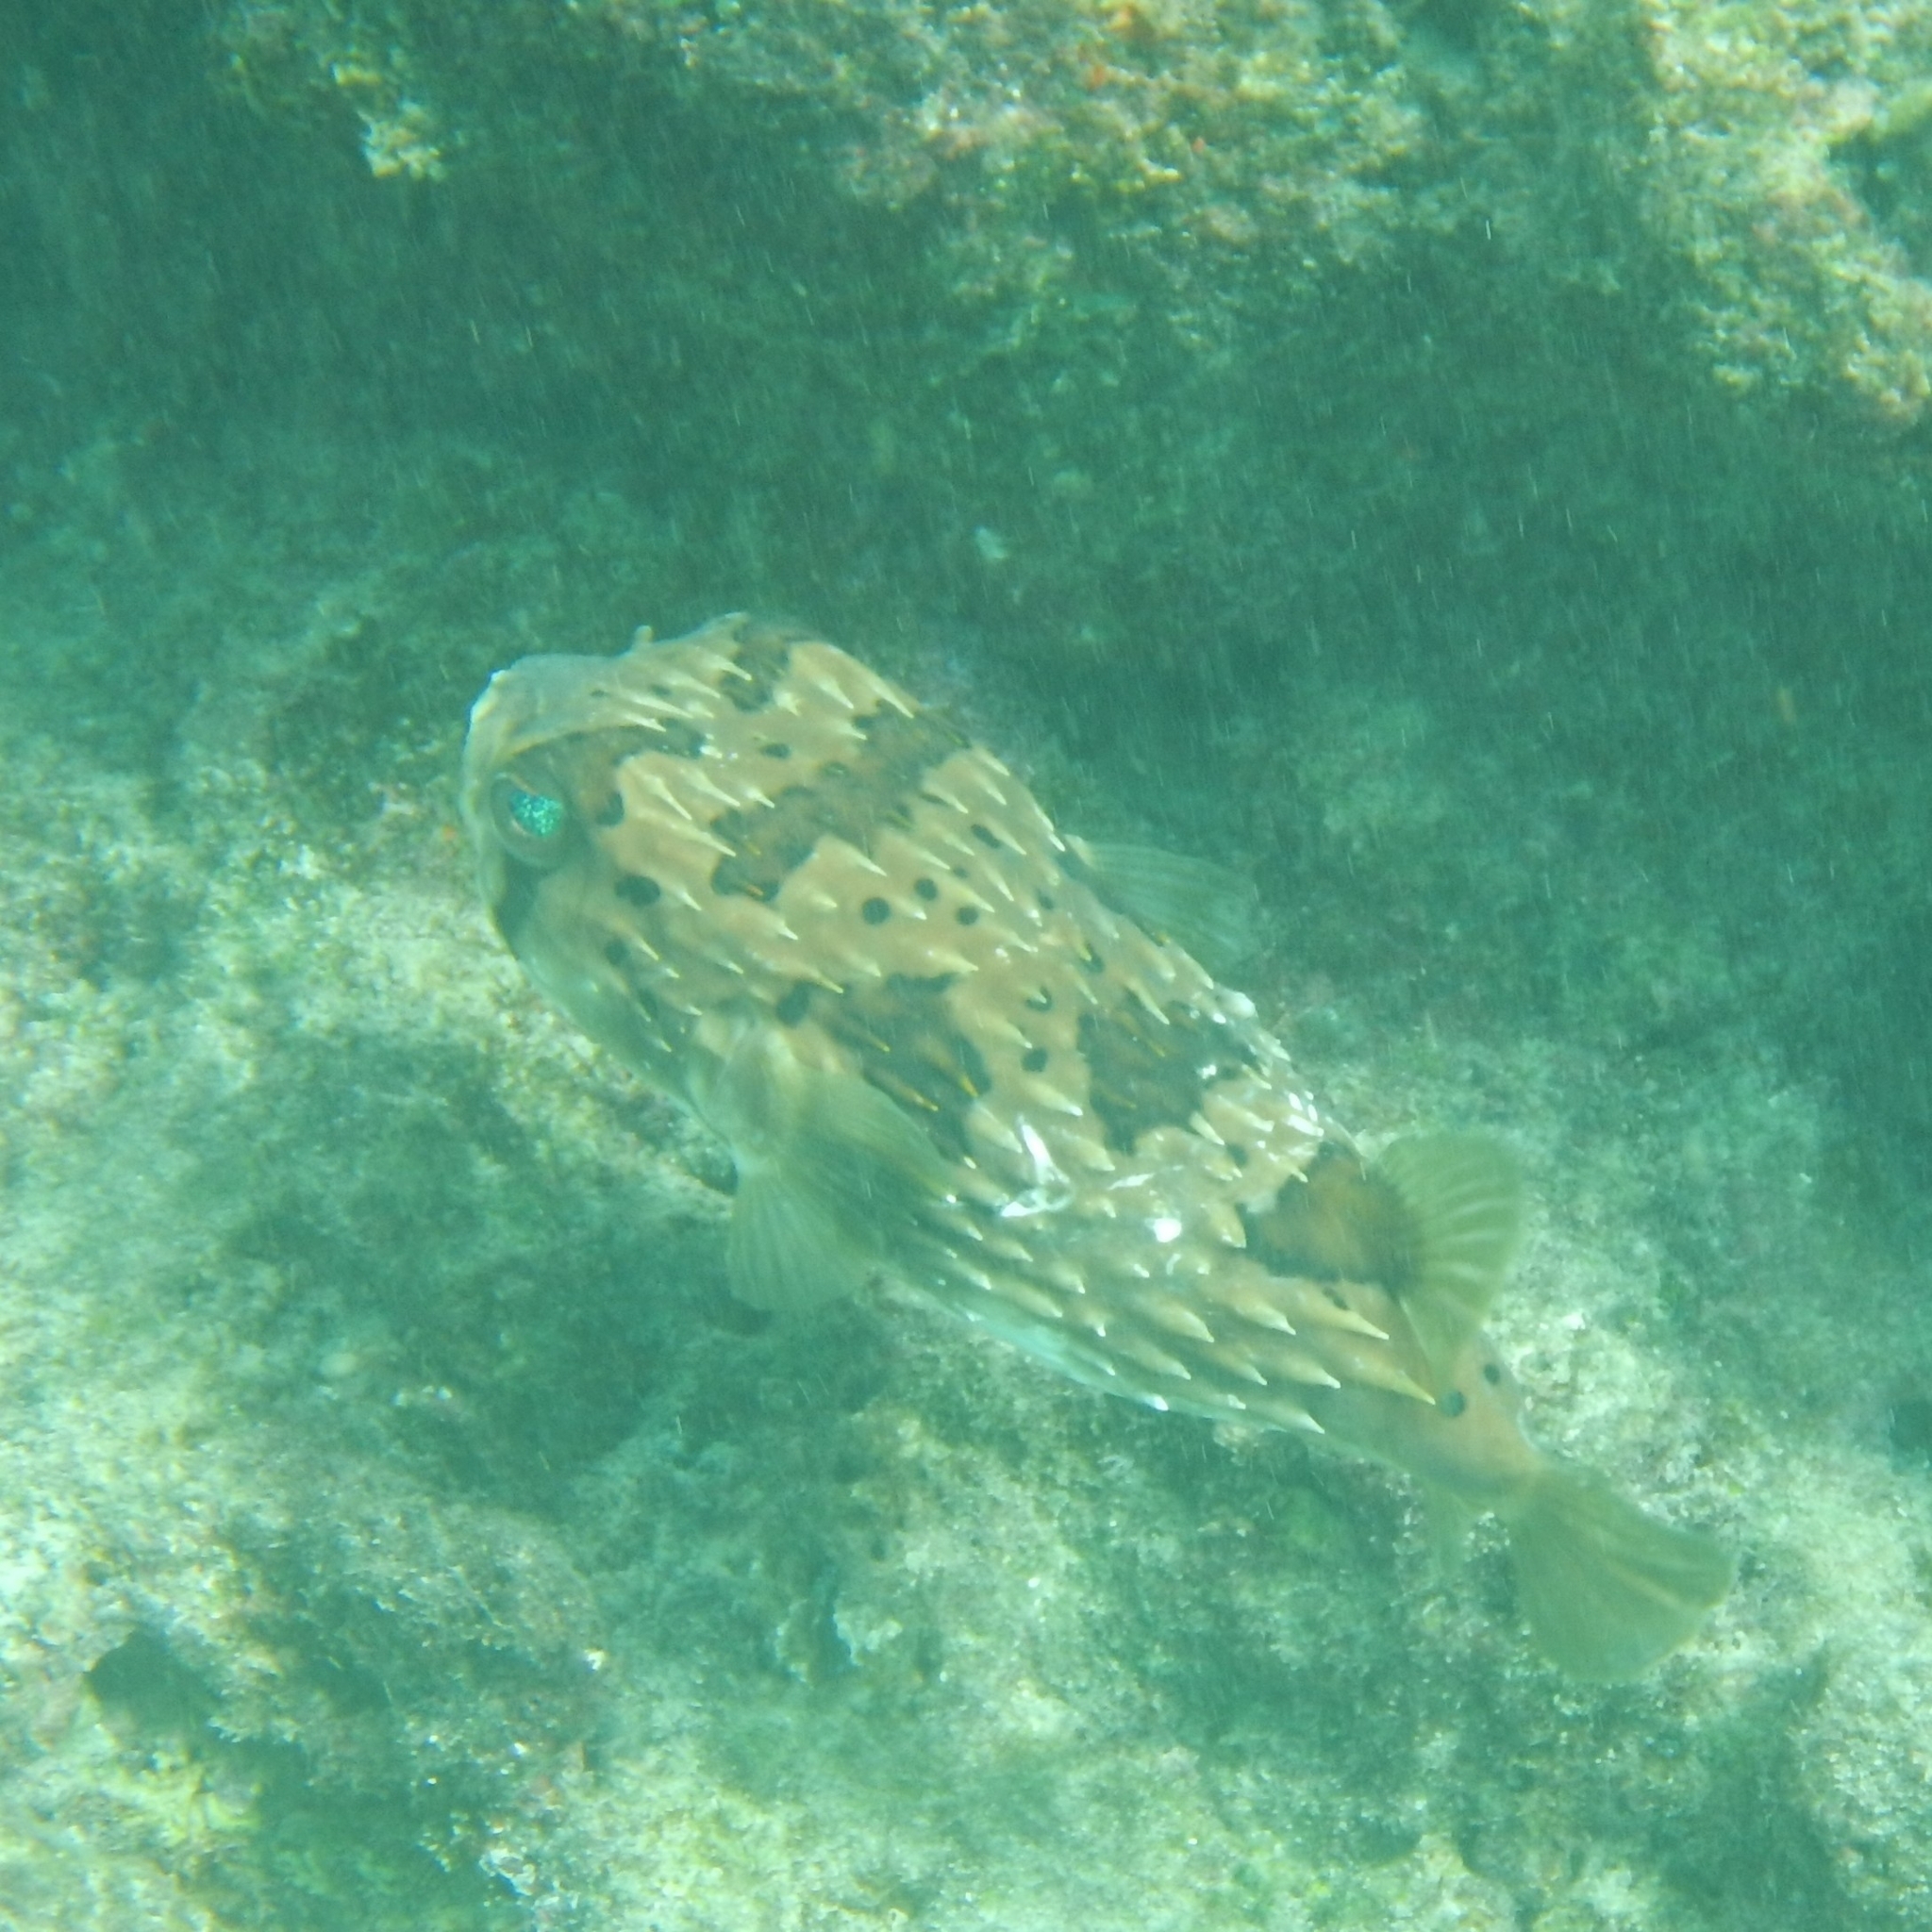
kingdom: Animalia
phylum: Chordata
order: Tetraodontiformes
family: Diodontidae
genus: Diodon
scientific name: Diodon holocanthus
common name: Balloonfish
